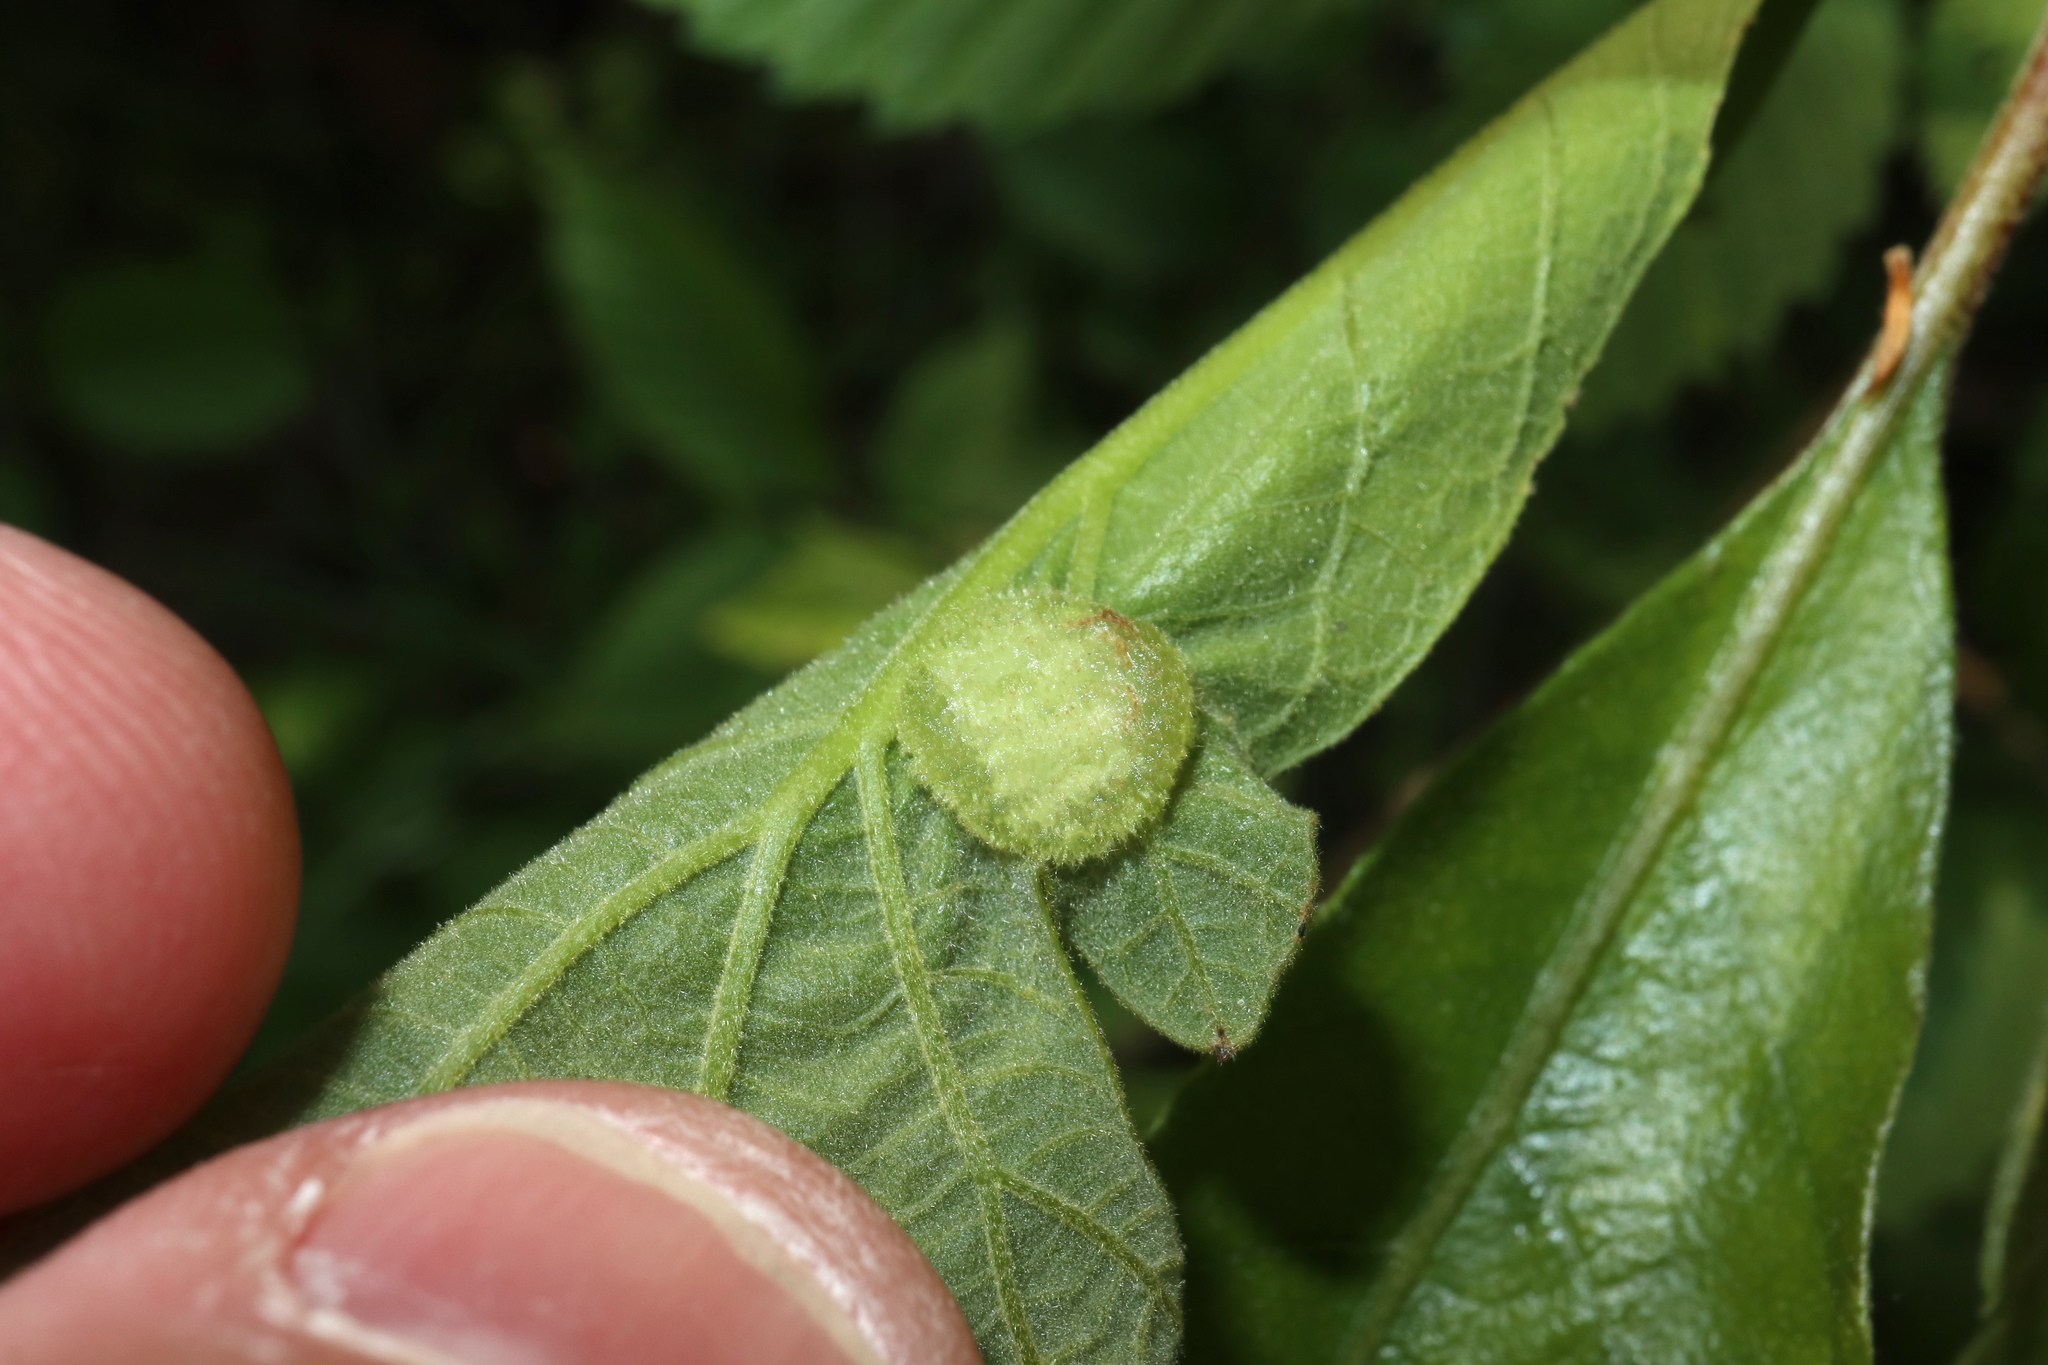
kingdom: Animalia
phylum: Arthropoda
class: Insecta
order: Hymenoptera
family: Cynipidae
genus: Neuroterus
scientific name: Neuroterus quercusirregularis
